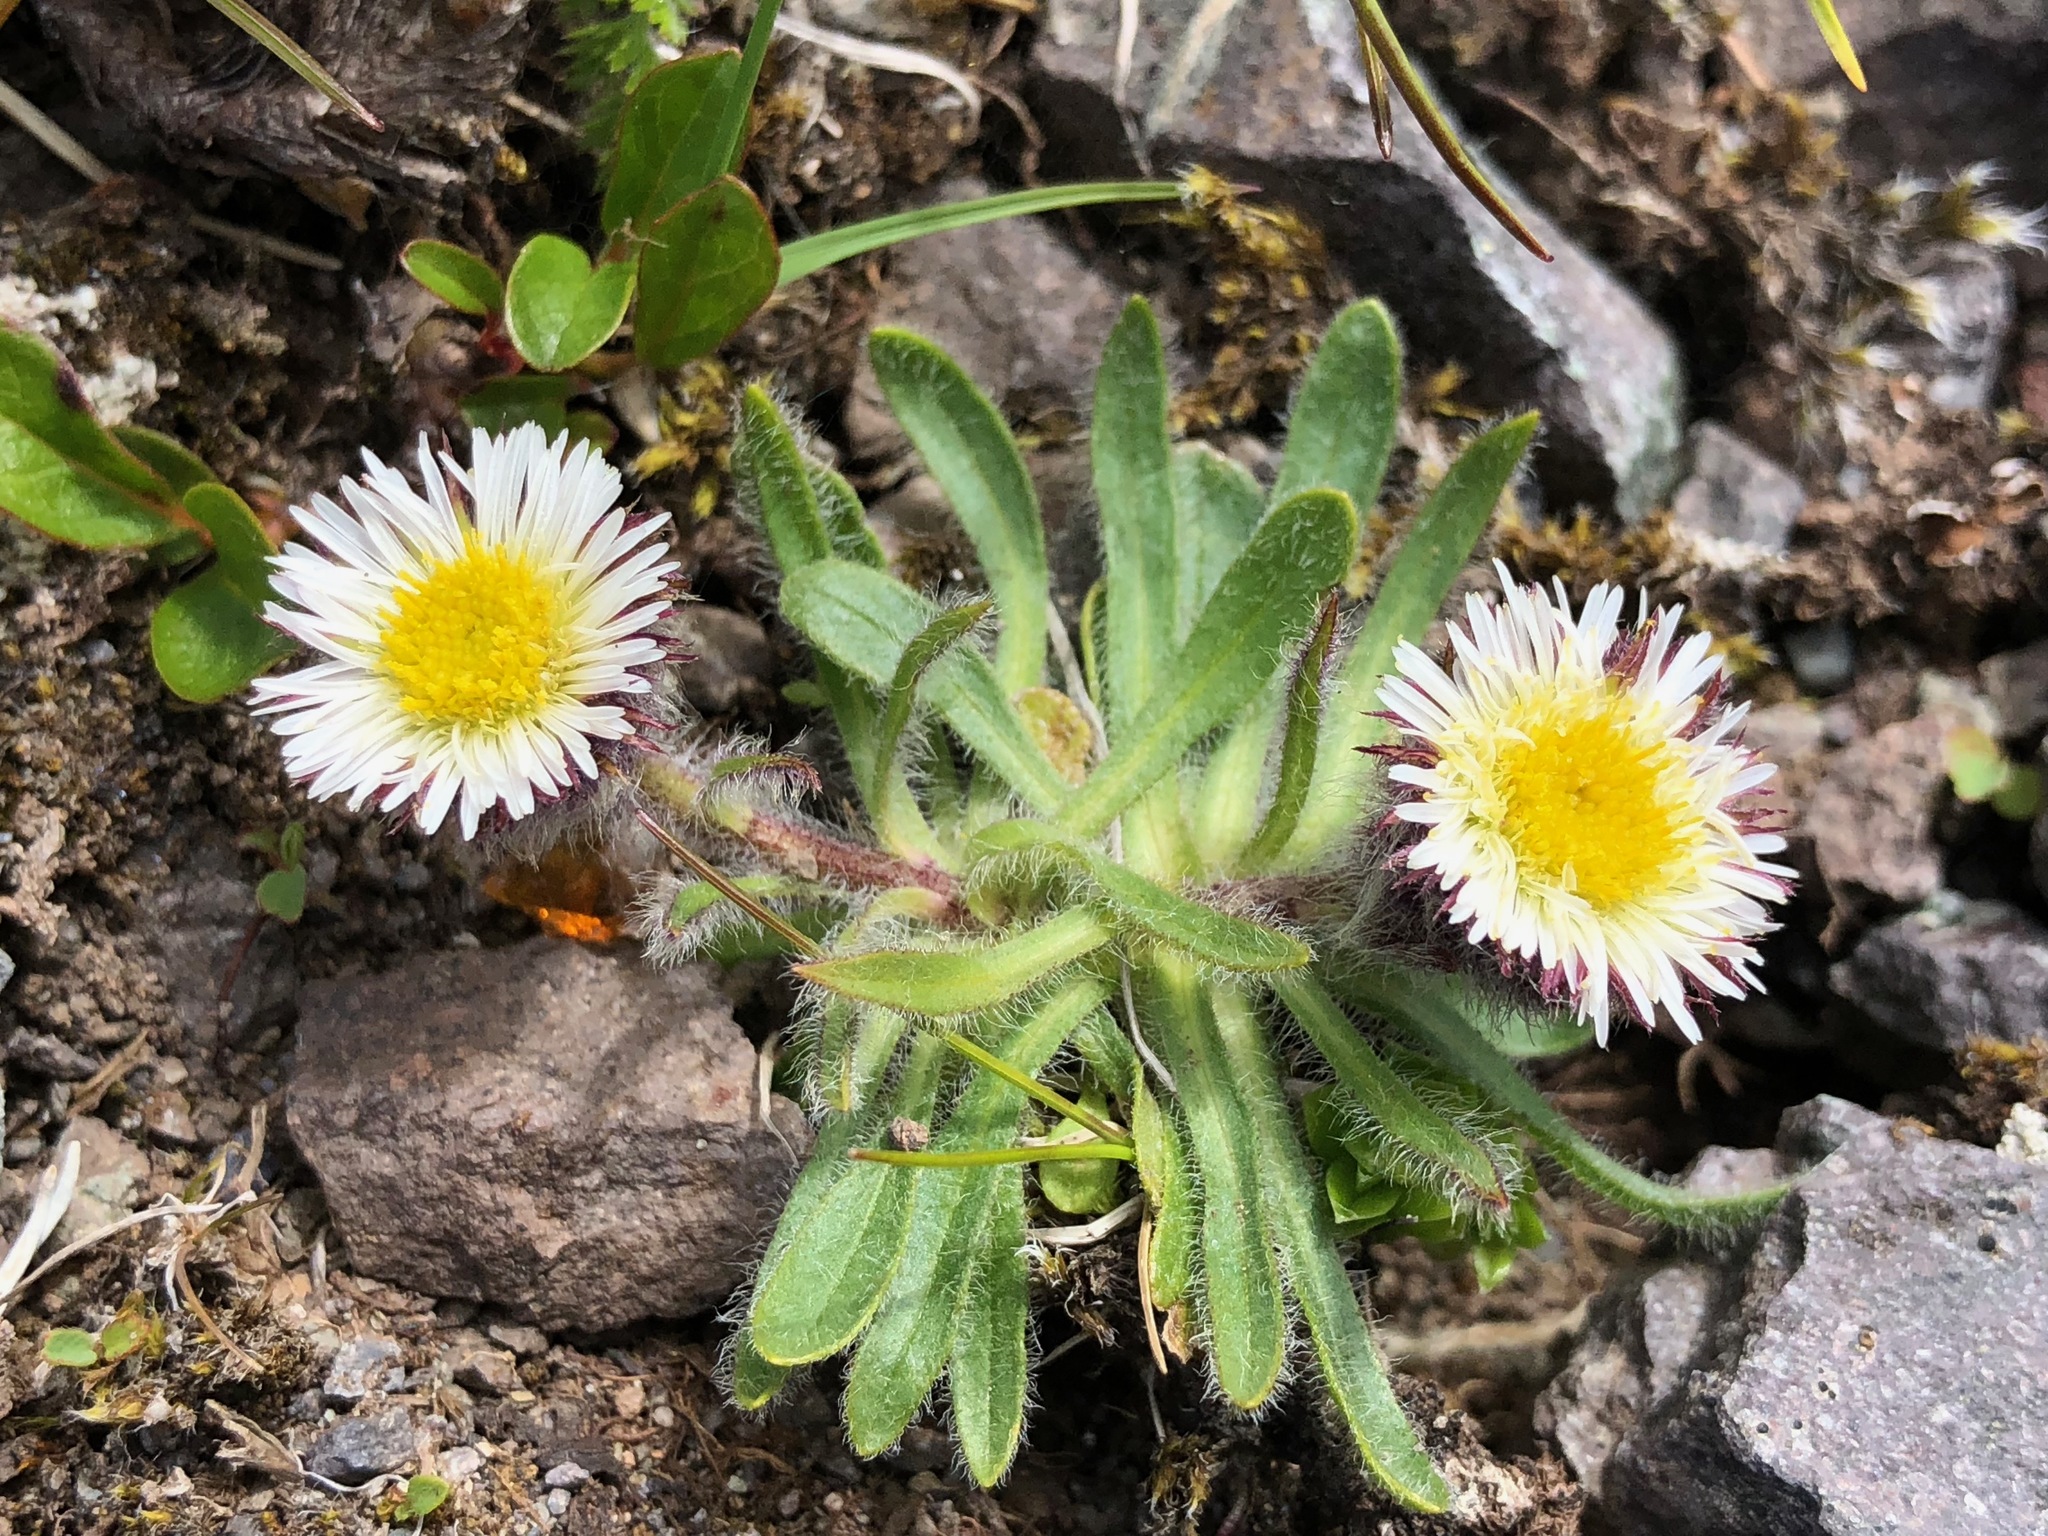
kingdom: Plantae
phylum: Tracheophyta
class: Magnoliopsida
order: Asterales
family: Asteraceae
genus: Erigeron
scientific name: Erigeron humilis
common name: Arctic-alpine fleabane
